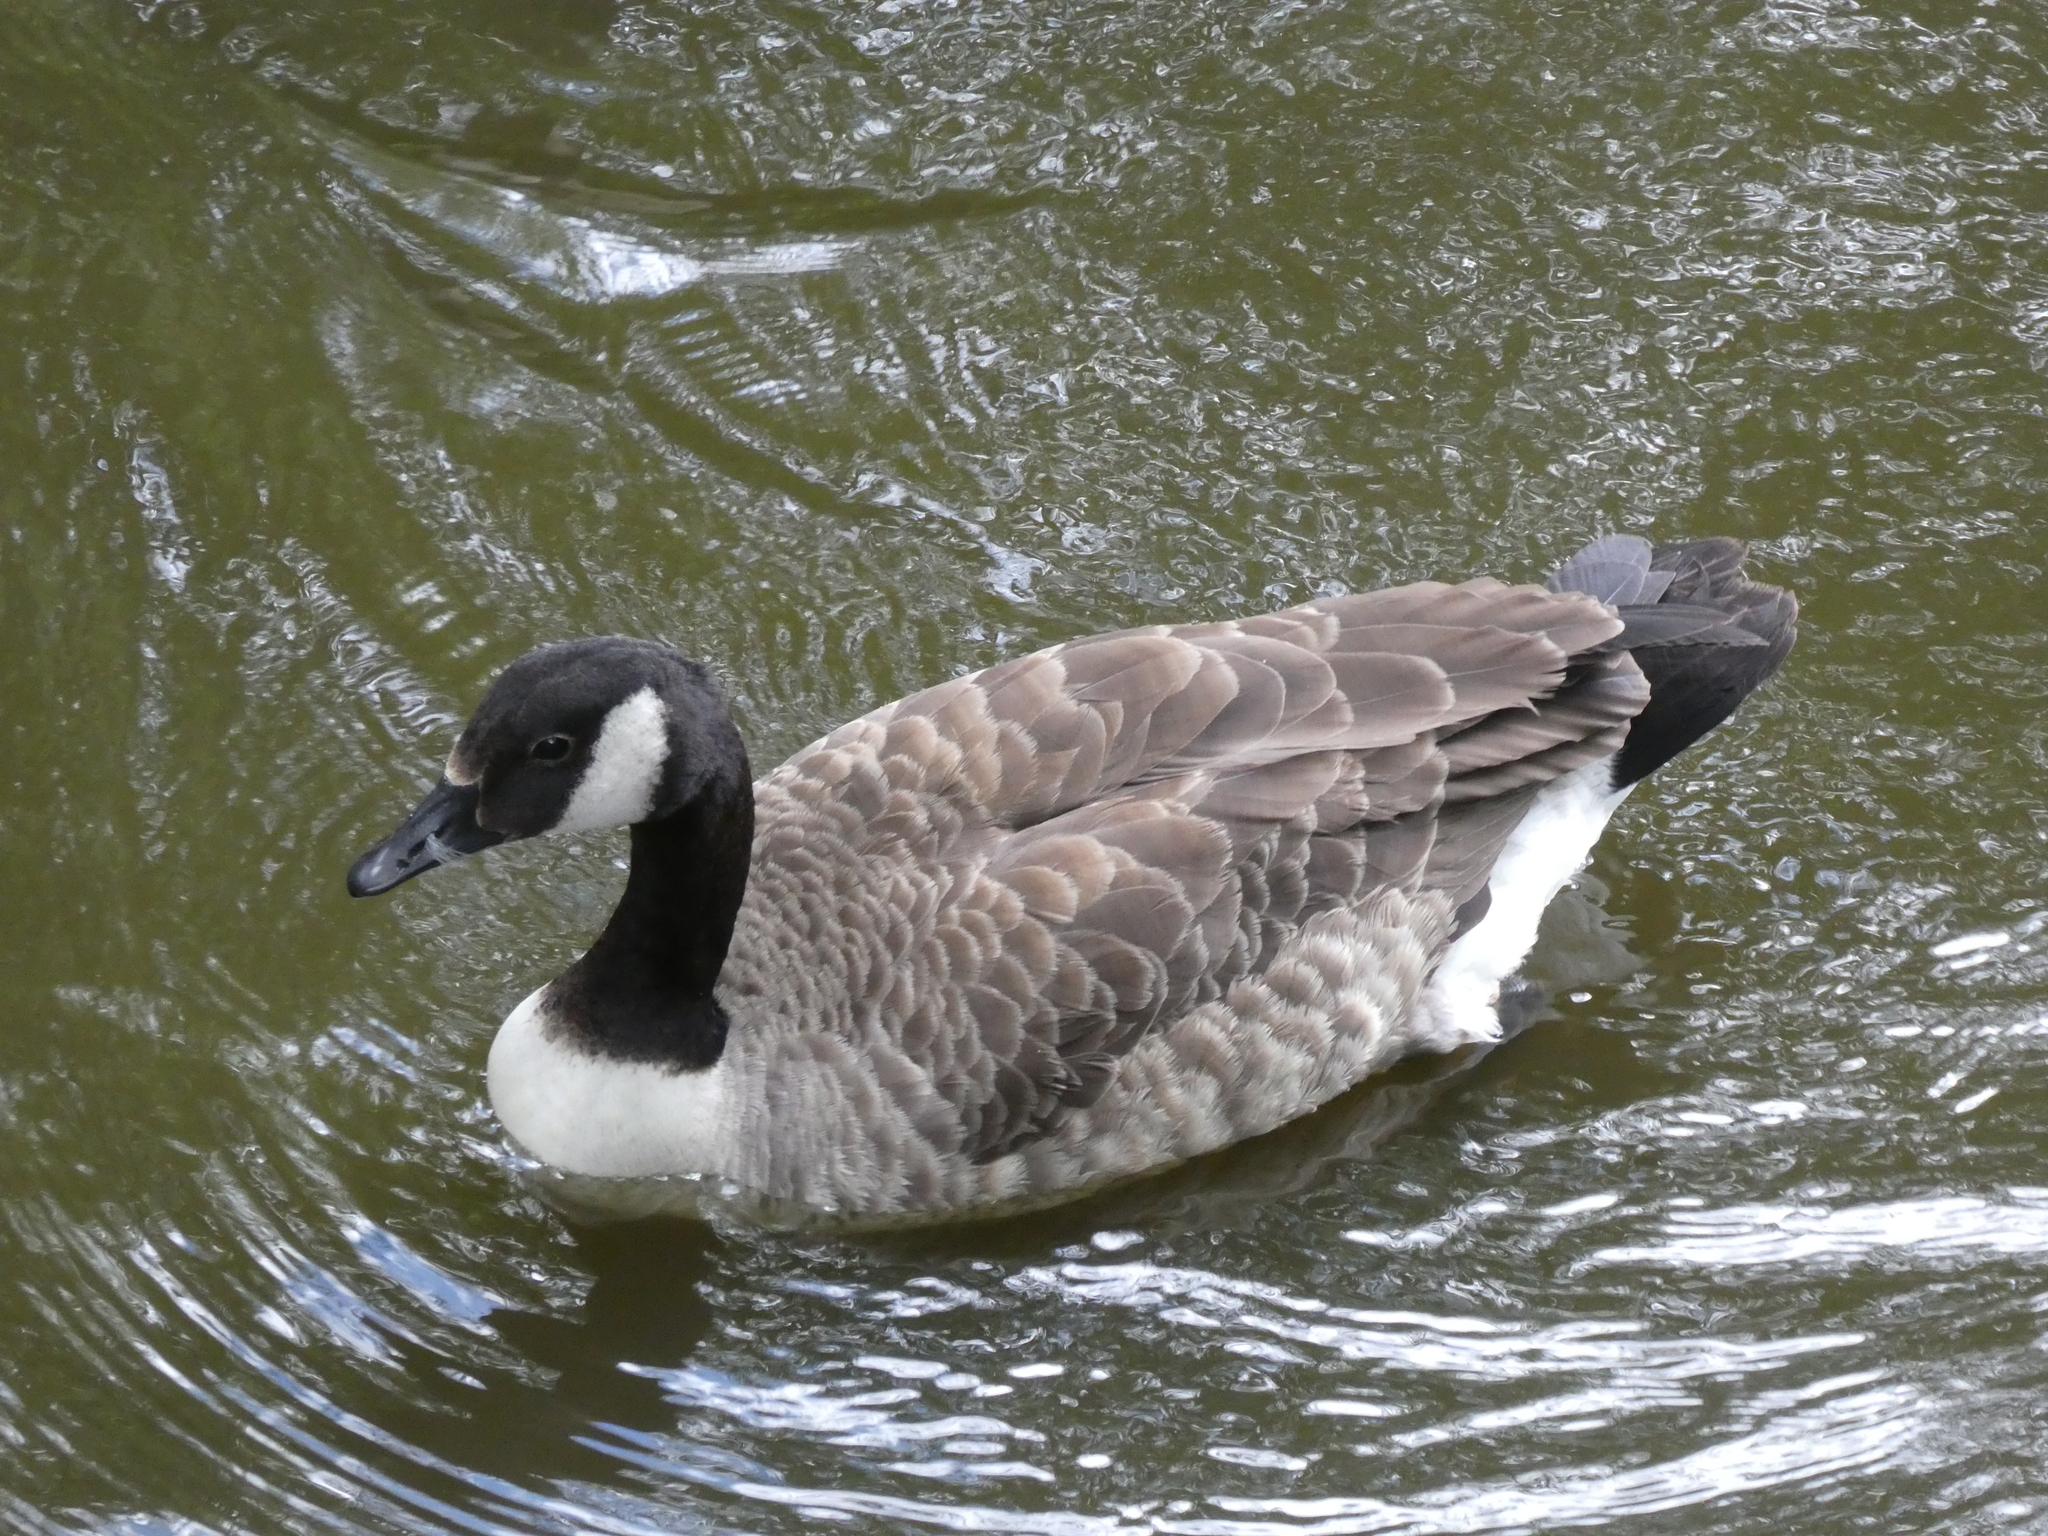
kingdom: Animalia
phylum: Chordata
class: Aves
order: Anseriformes
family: Anatidae
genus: Branta
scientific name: Branta canadensis
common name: Canada goose
